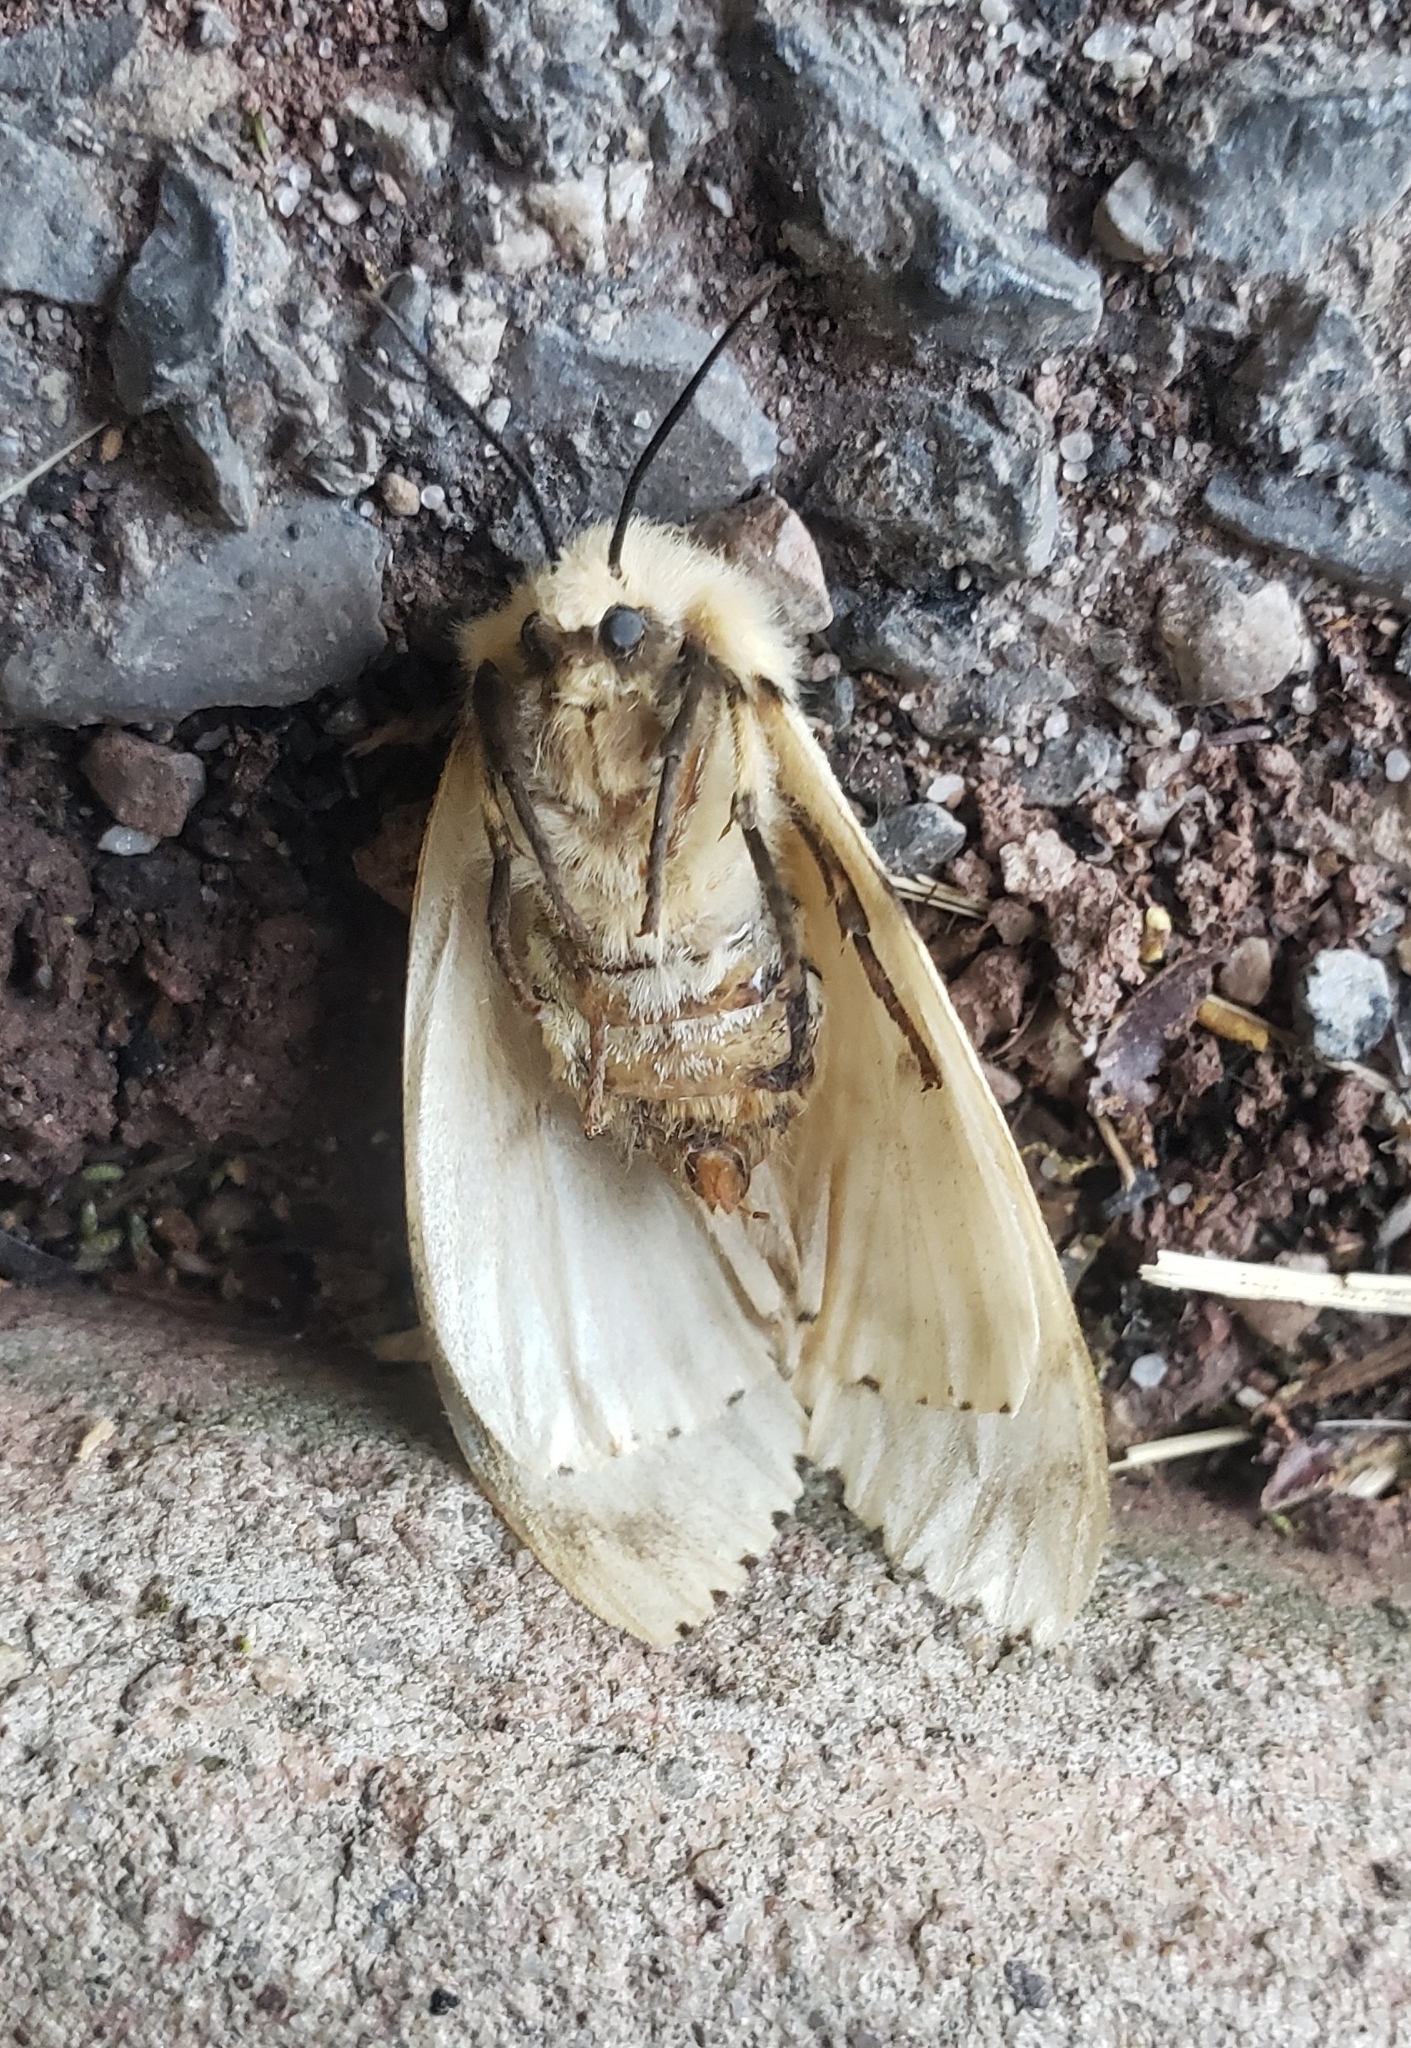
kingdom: Animalia
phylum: Arthropoda
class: Insecta
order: Lepidoptera
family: Erebidae
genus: Lymantria
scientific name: Lymantria dispar
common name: Gypsy moth
